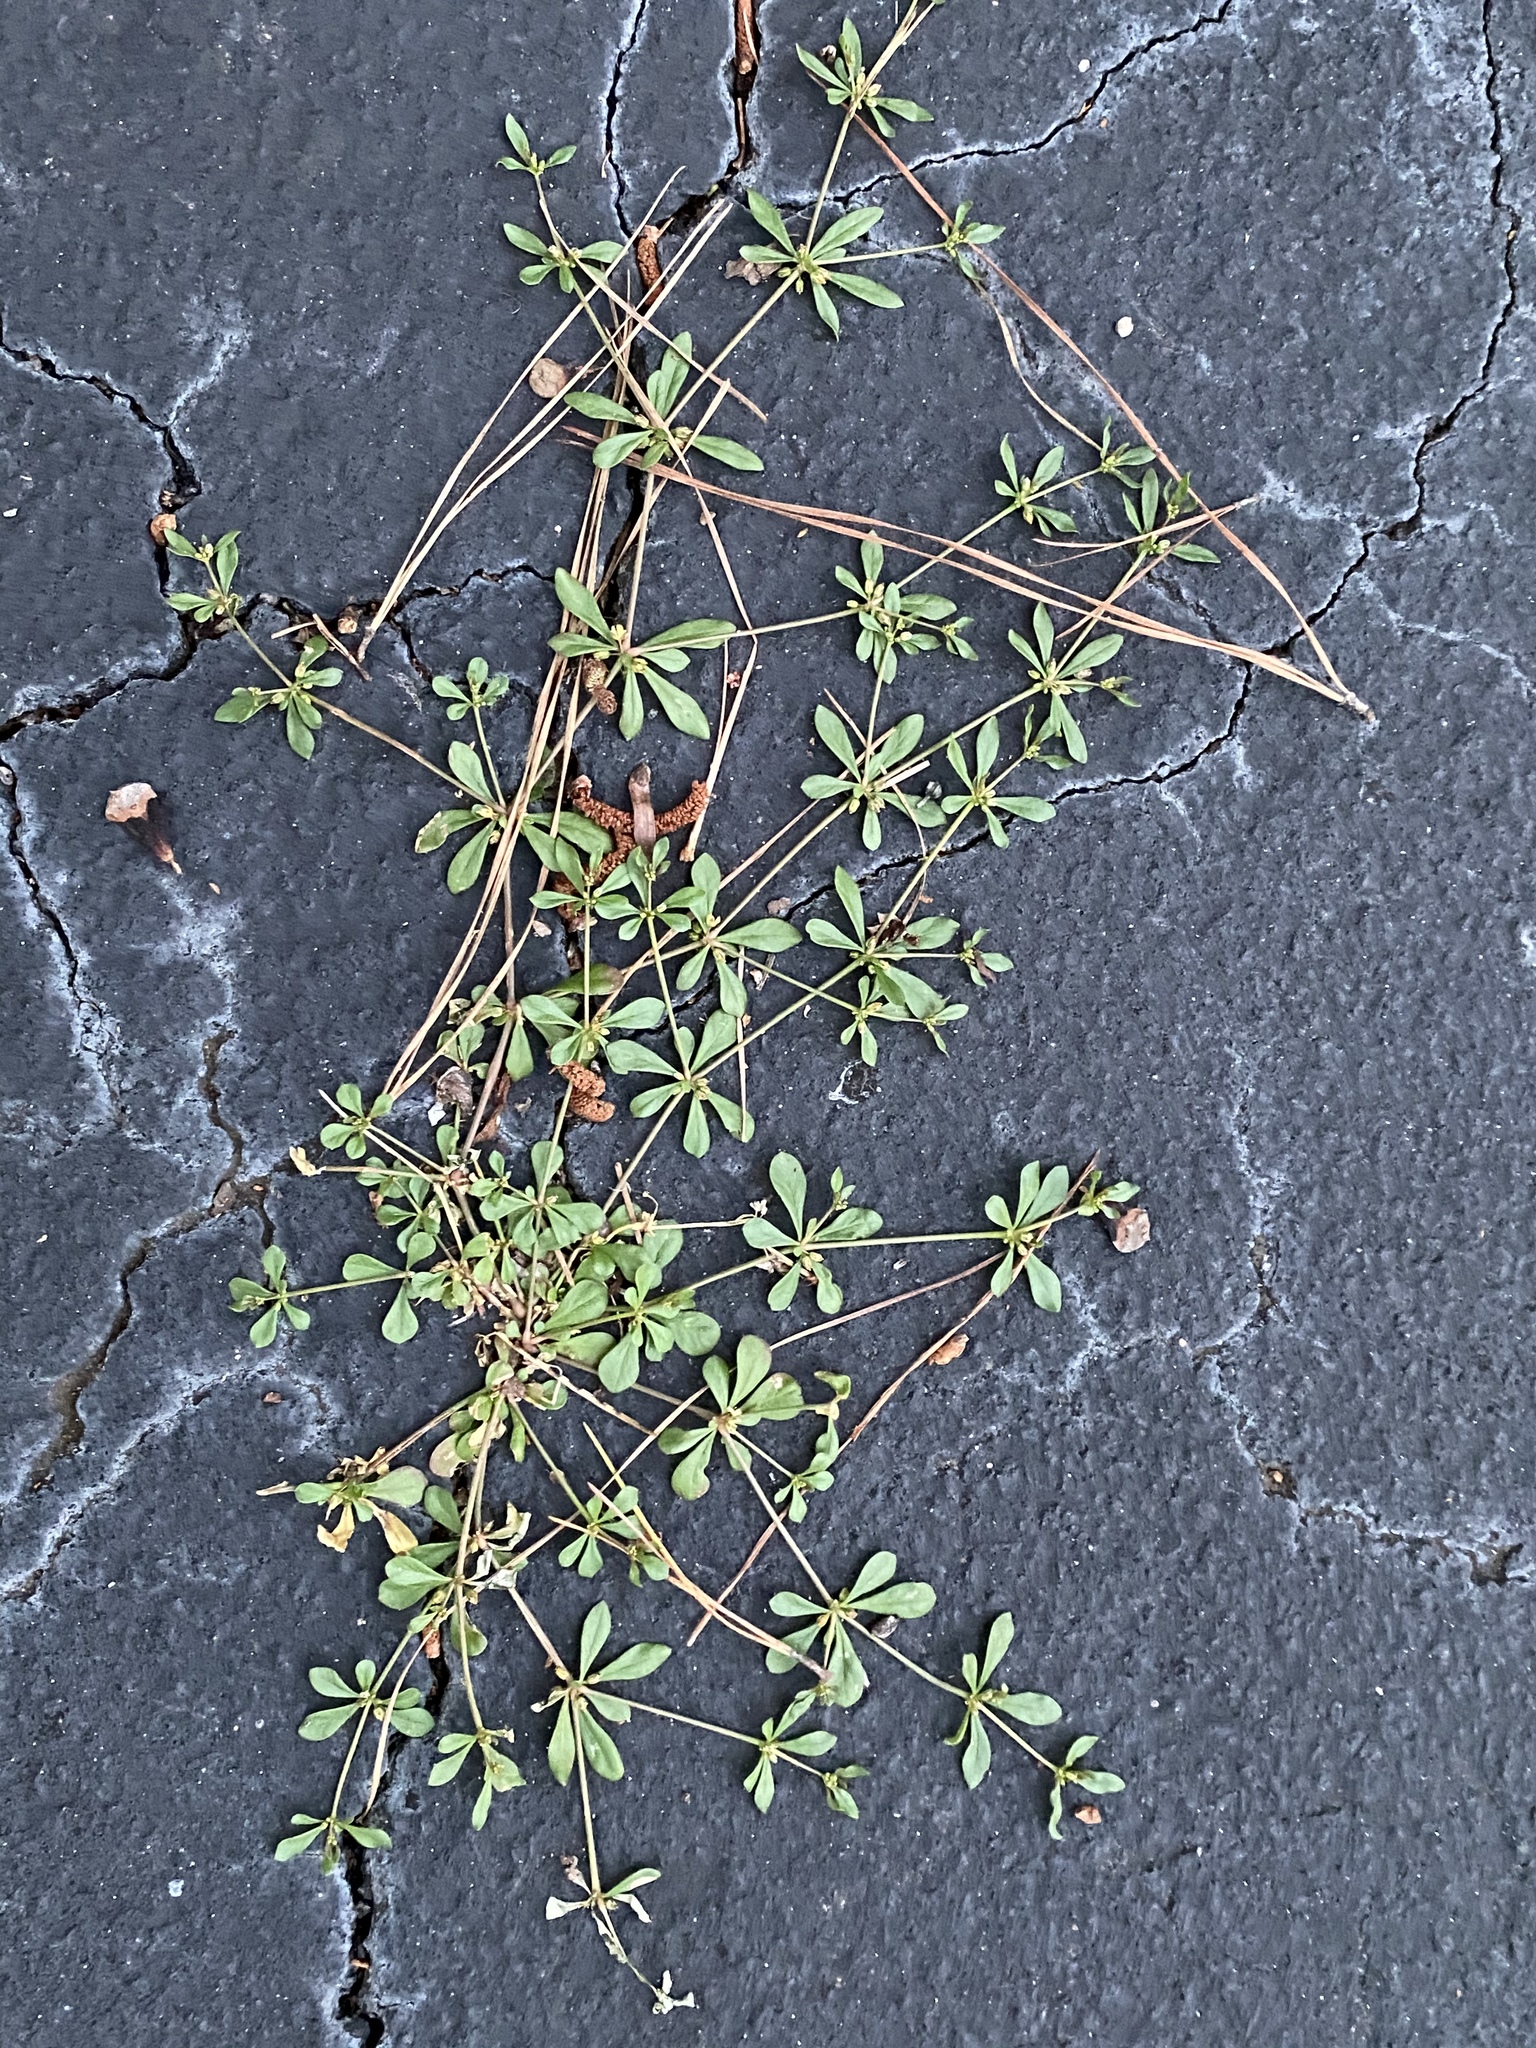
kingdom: Plantae
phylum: Tracheophyta
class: Magnoliopsida
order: Caryophyllales
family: Molluginaceae
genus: Mollugo
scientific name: Mollugo verticillata
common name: Green carpetweed
